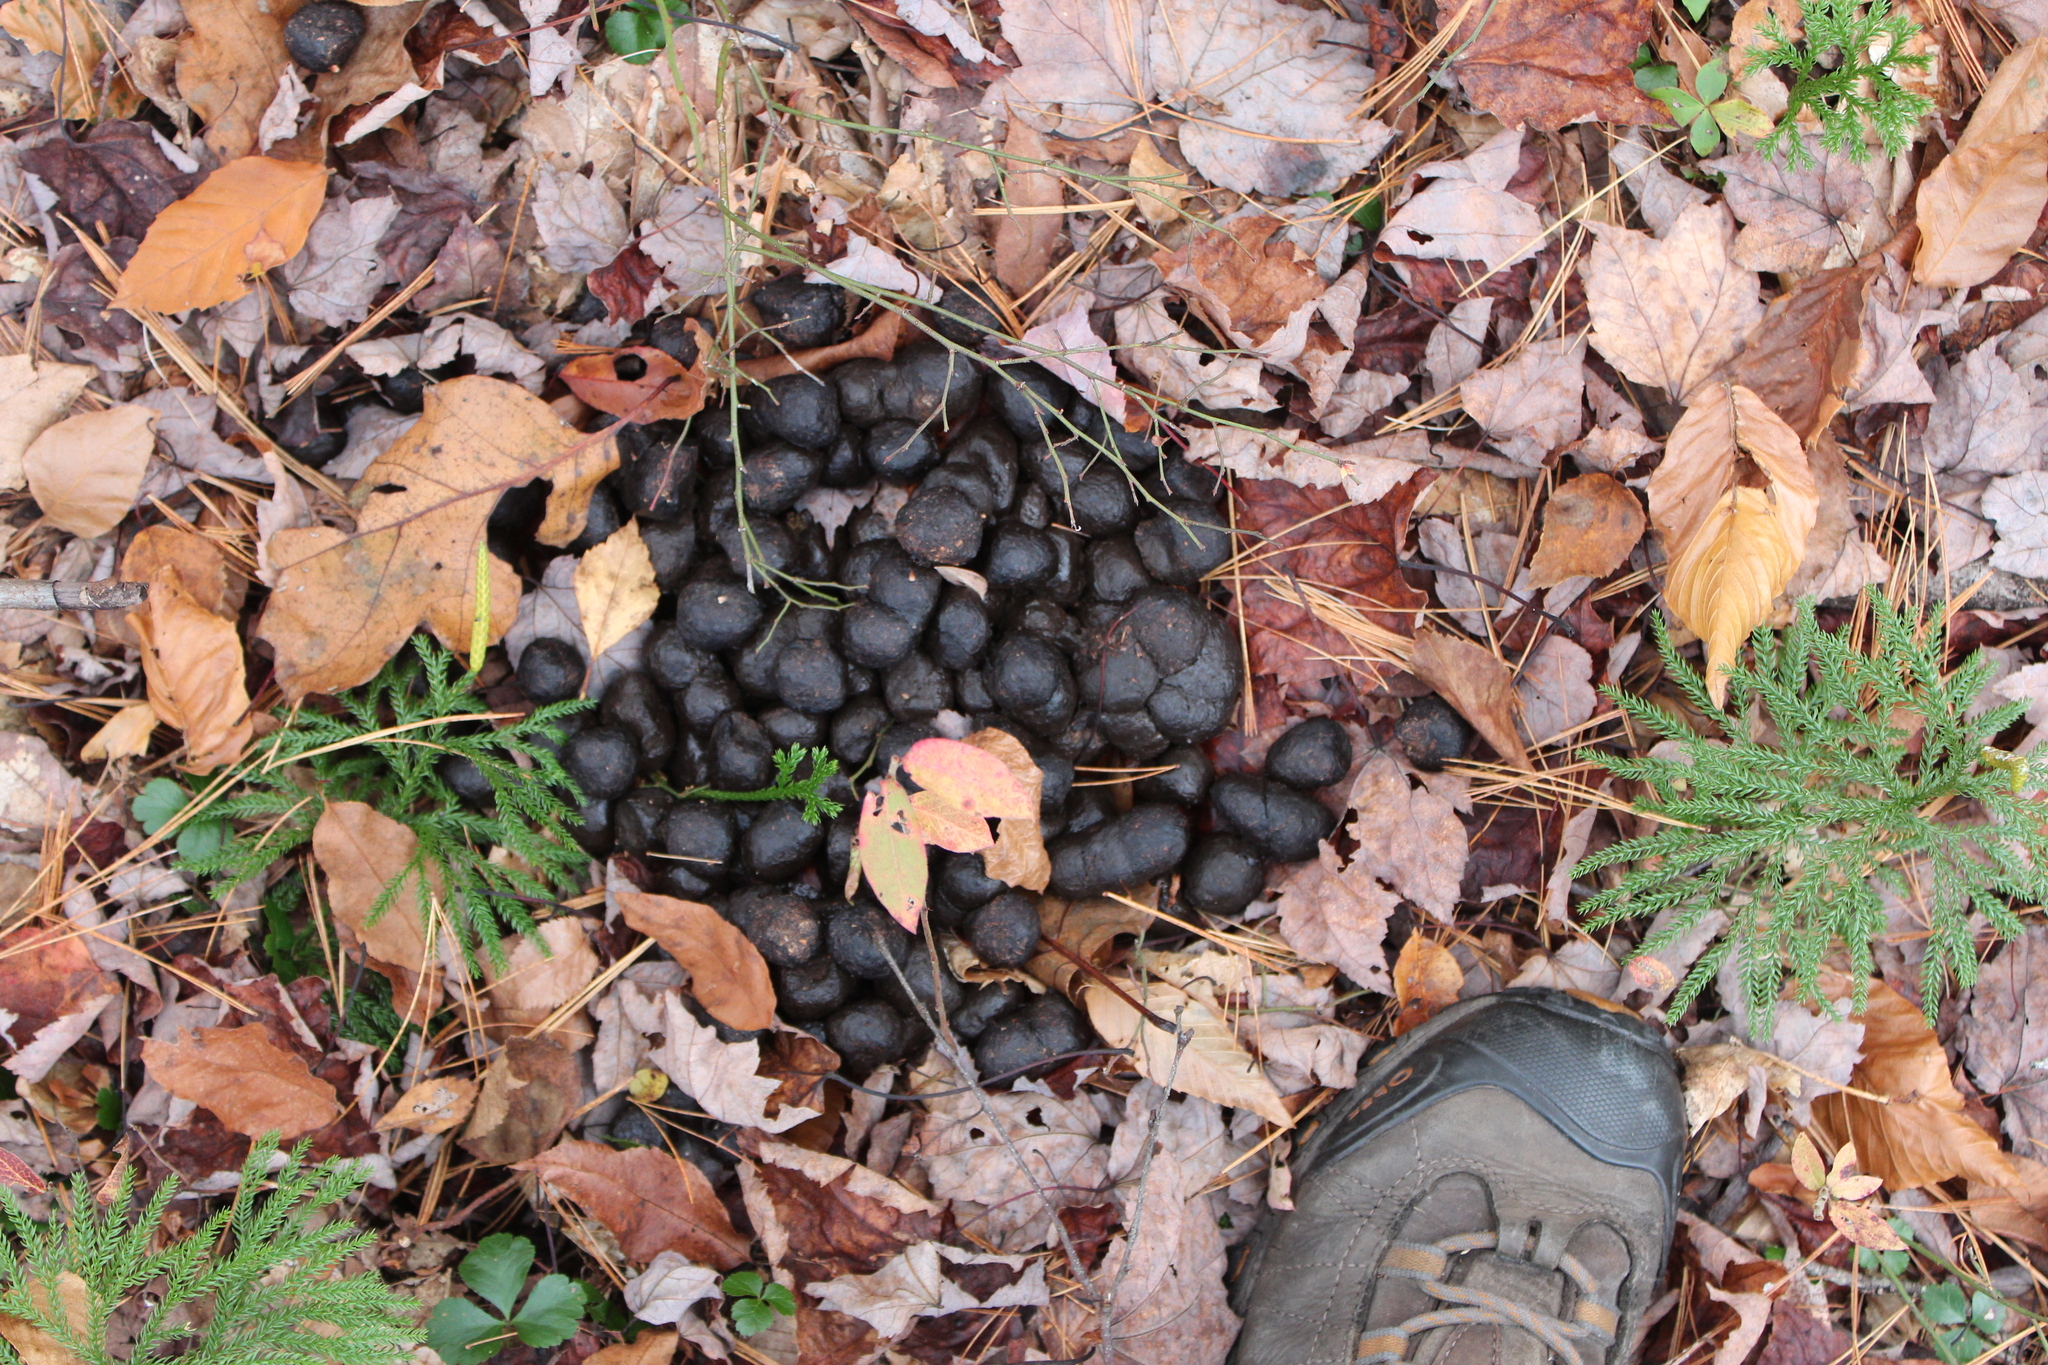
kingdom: Animalia
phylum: Chordata
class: Mammalia
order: Artiodactyla
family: Cervidae
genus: Alces
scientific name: Alces alces
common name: Moose
